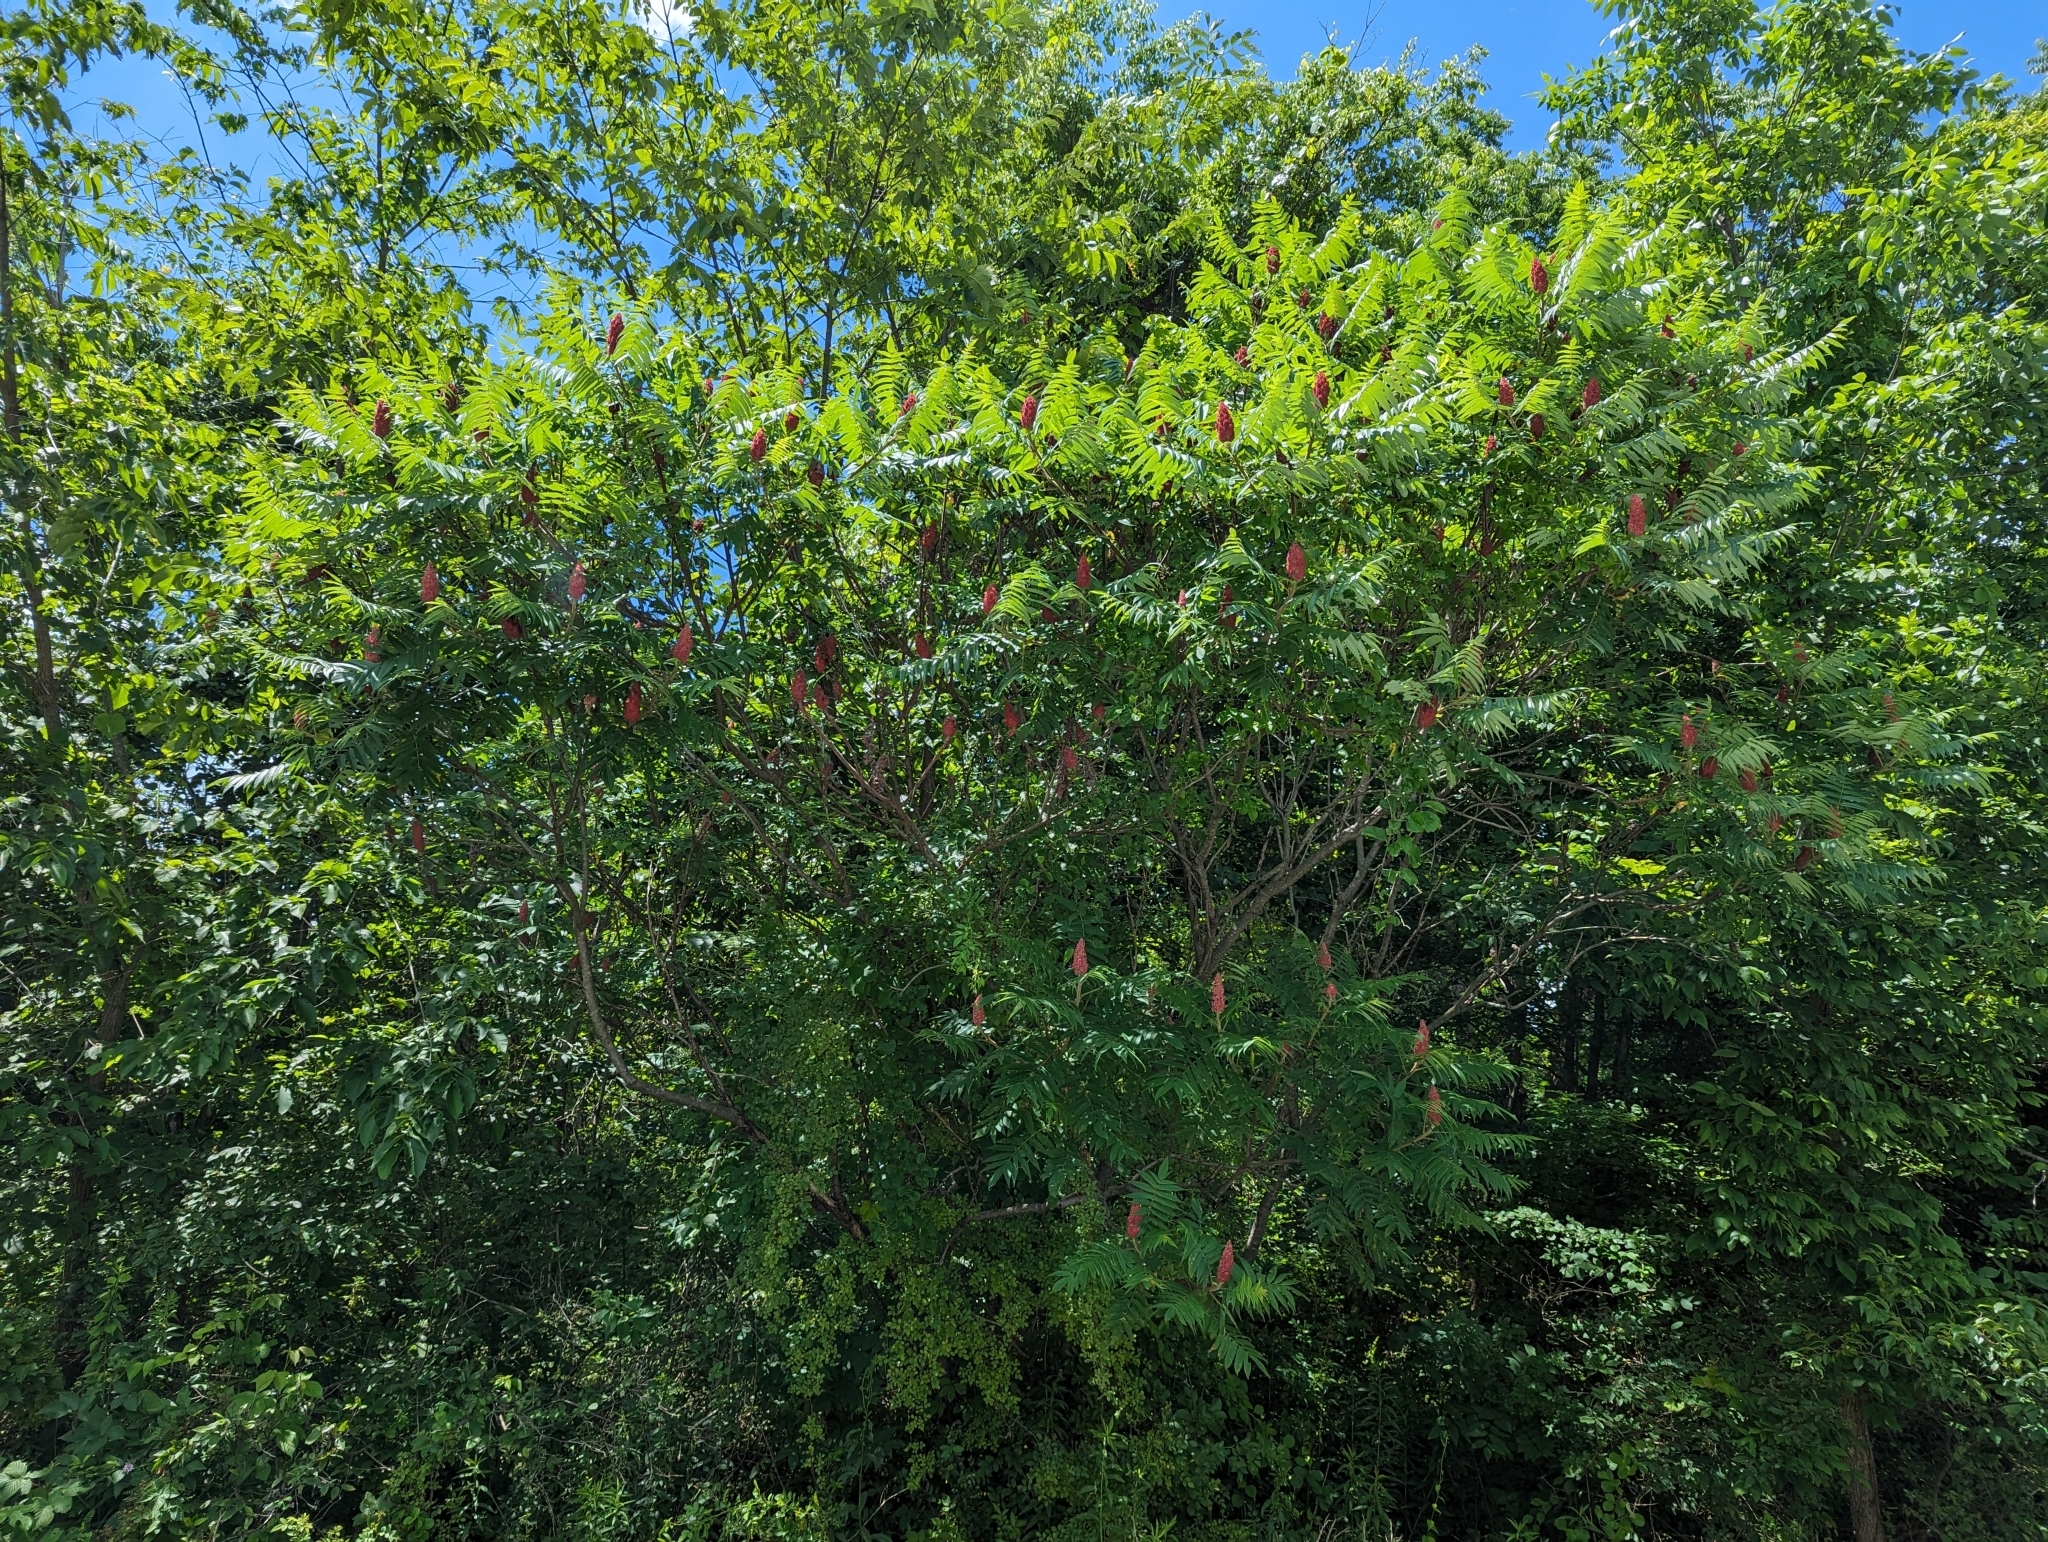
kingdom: Plantae
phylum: Tracheophyta
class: Magnoliopsida
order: Sapindales
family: Anacardiaceae
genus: Rhus
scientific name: Rhus typhina
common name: Staghorn sumac
